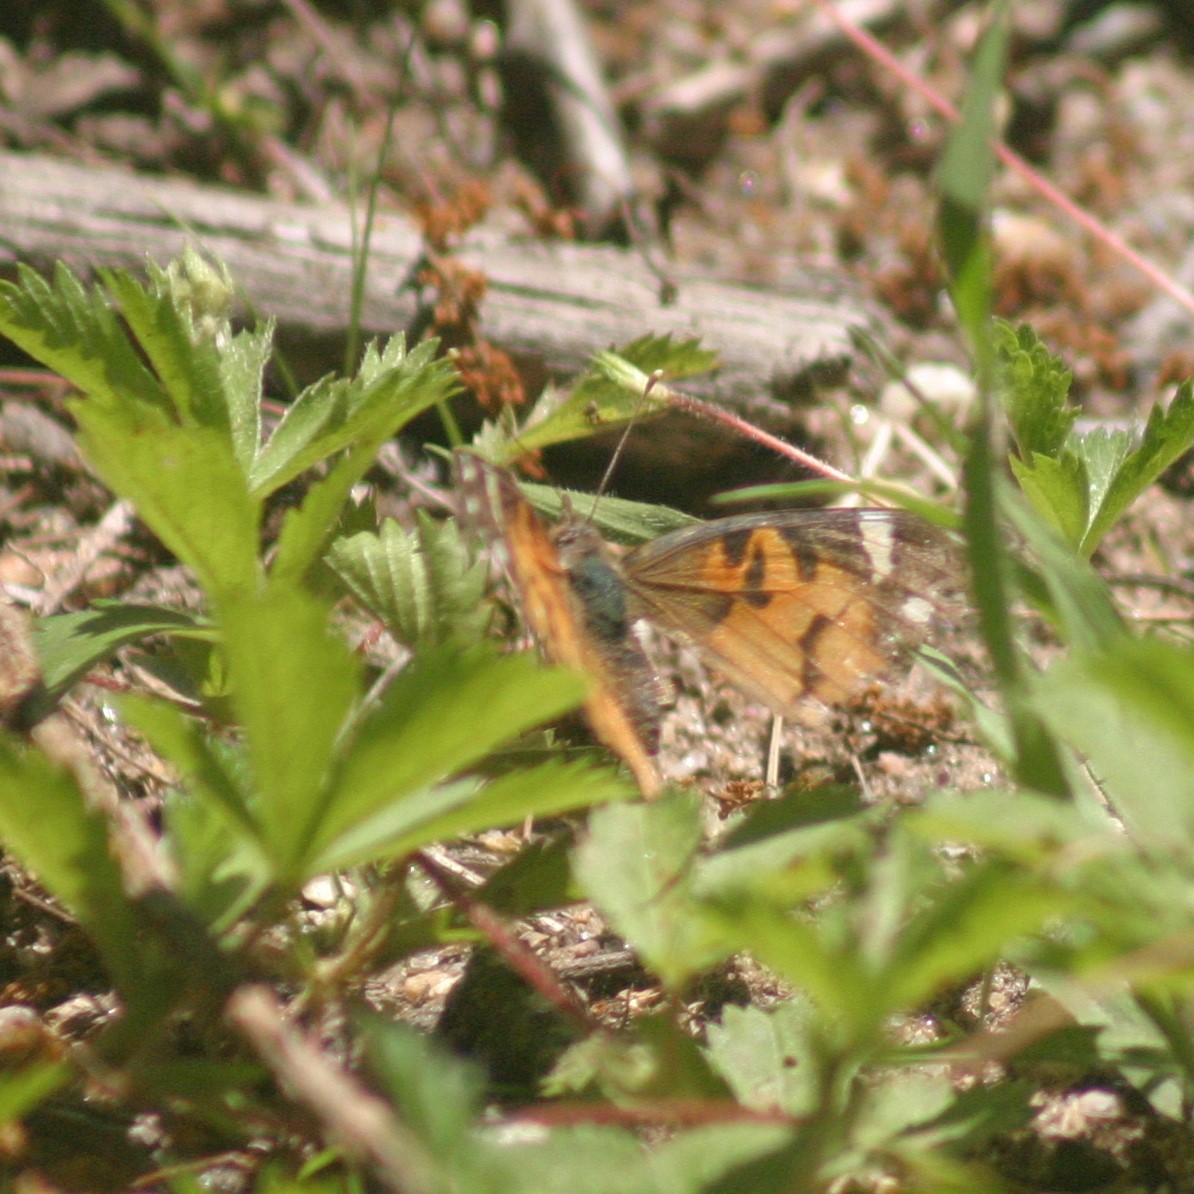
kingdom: Animalia
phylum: Arthropoda
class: Insecta
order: Lepidoptera
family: Nymphalidae
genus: Vanessa
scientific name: Vanessa virginiensis
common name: American lady
